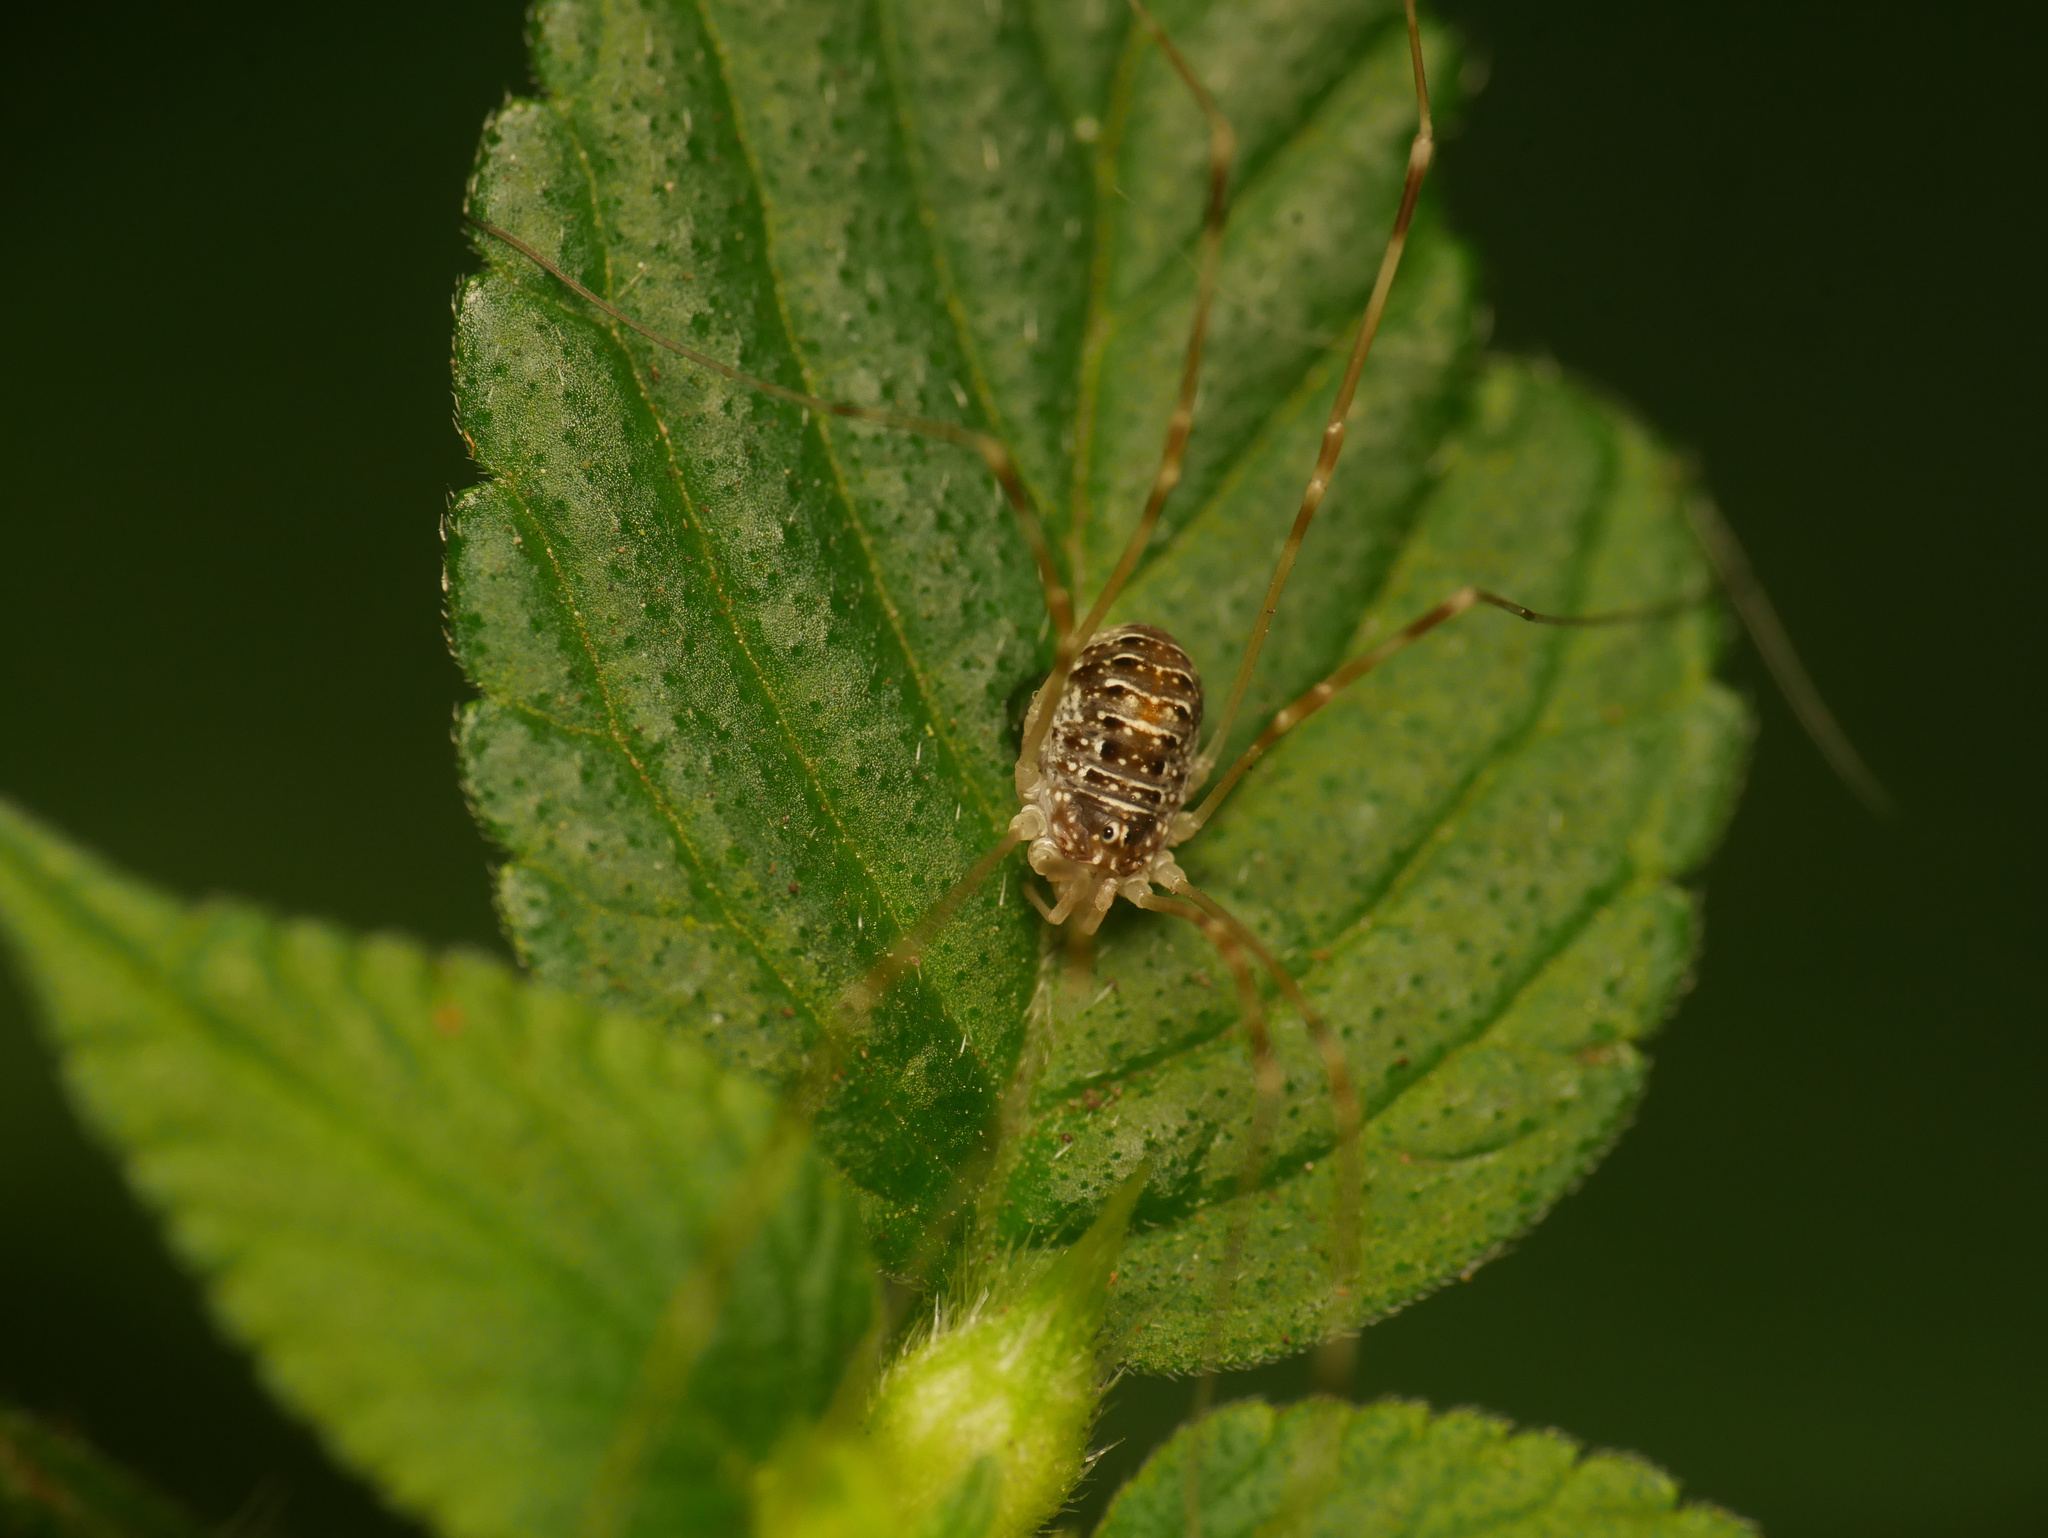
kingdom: Animalia
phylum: Arthropoda
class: Arachnida
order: Opiliones
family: Phalangiidae
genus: Opilio
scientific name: Opilio canestrinii
